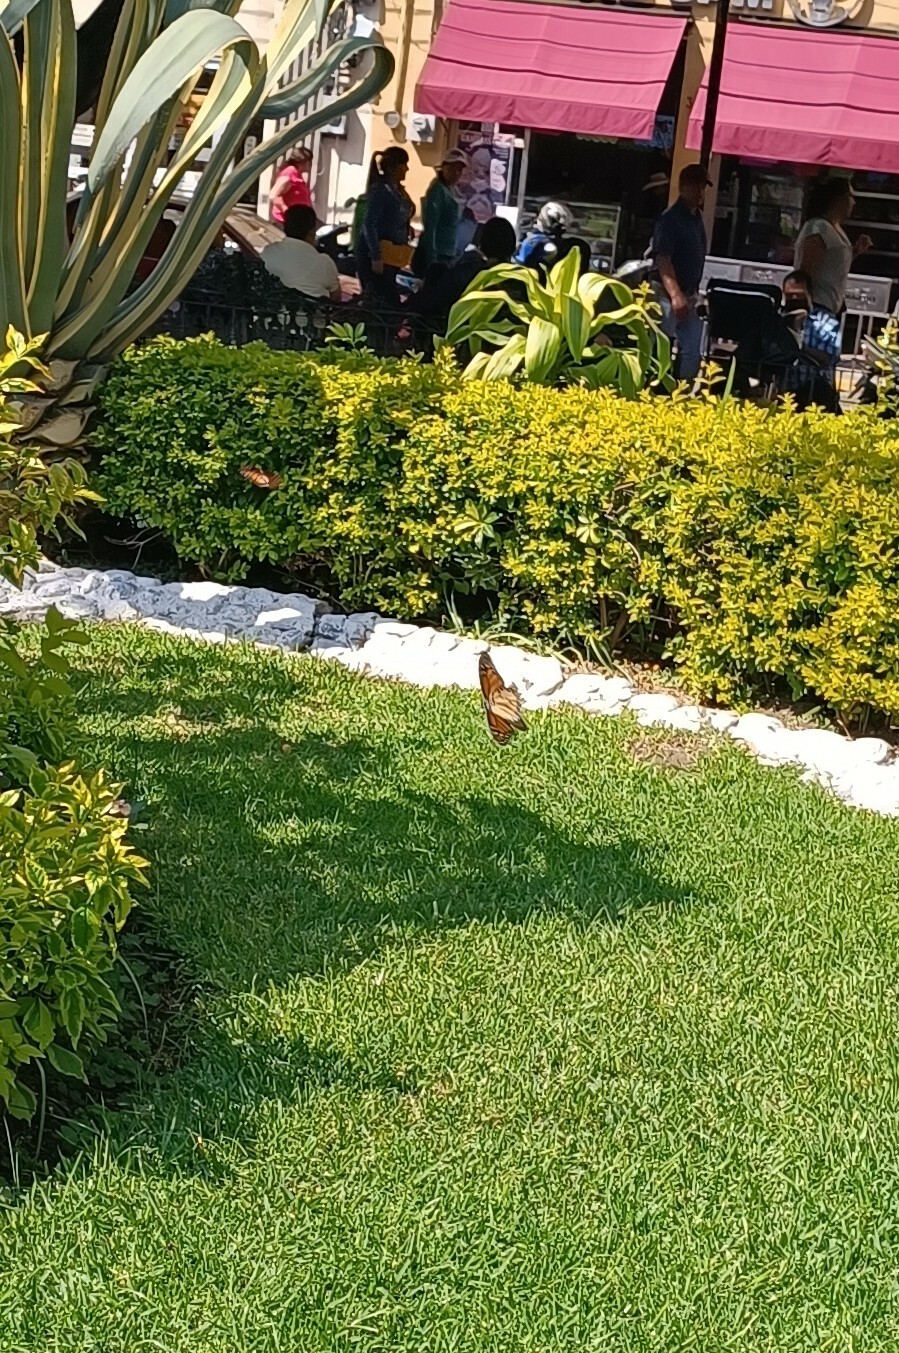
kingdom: Animalia
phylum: Arthropoda
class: Insecta
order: Lepidoptera
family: Nymphalidae
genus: Danaus
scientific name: Danaus plexippus
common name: Monarch
